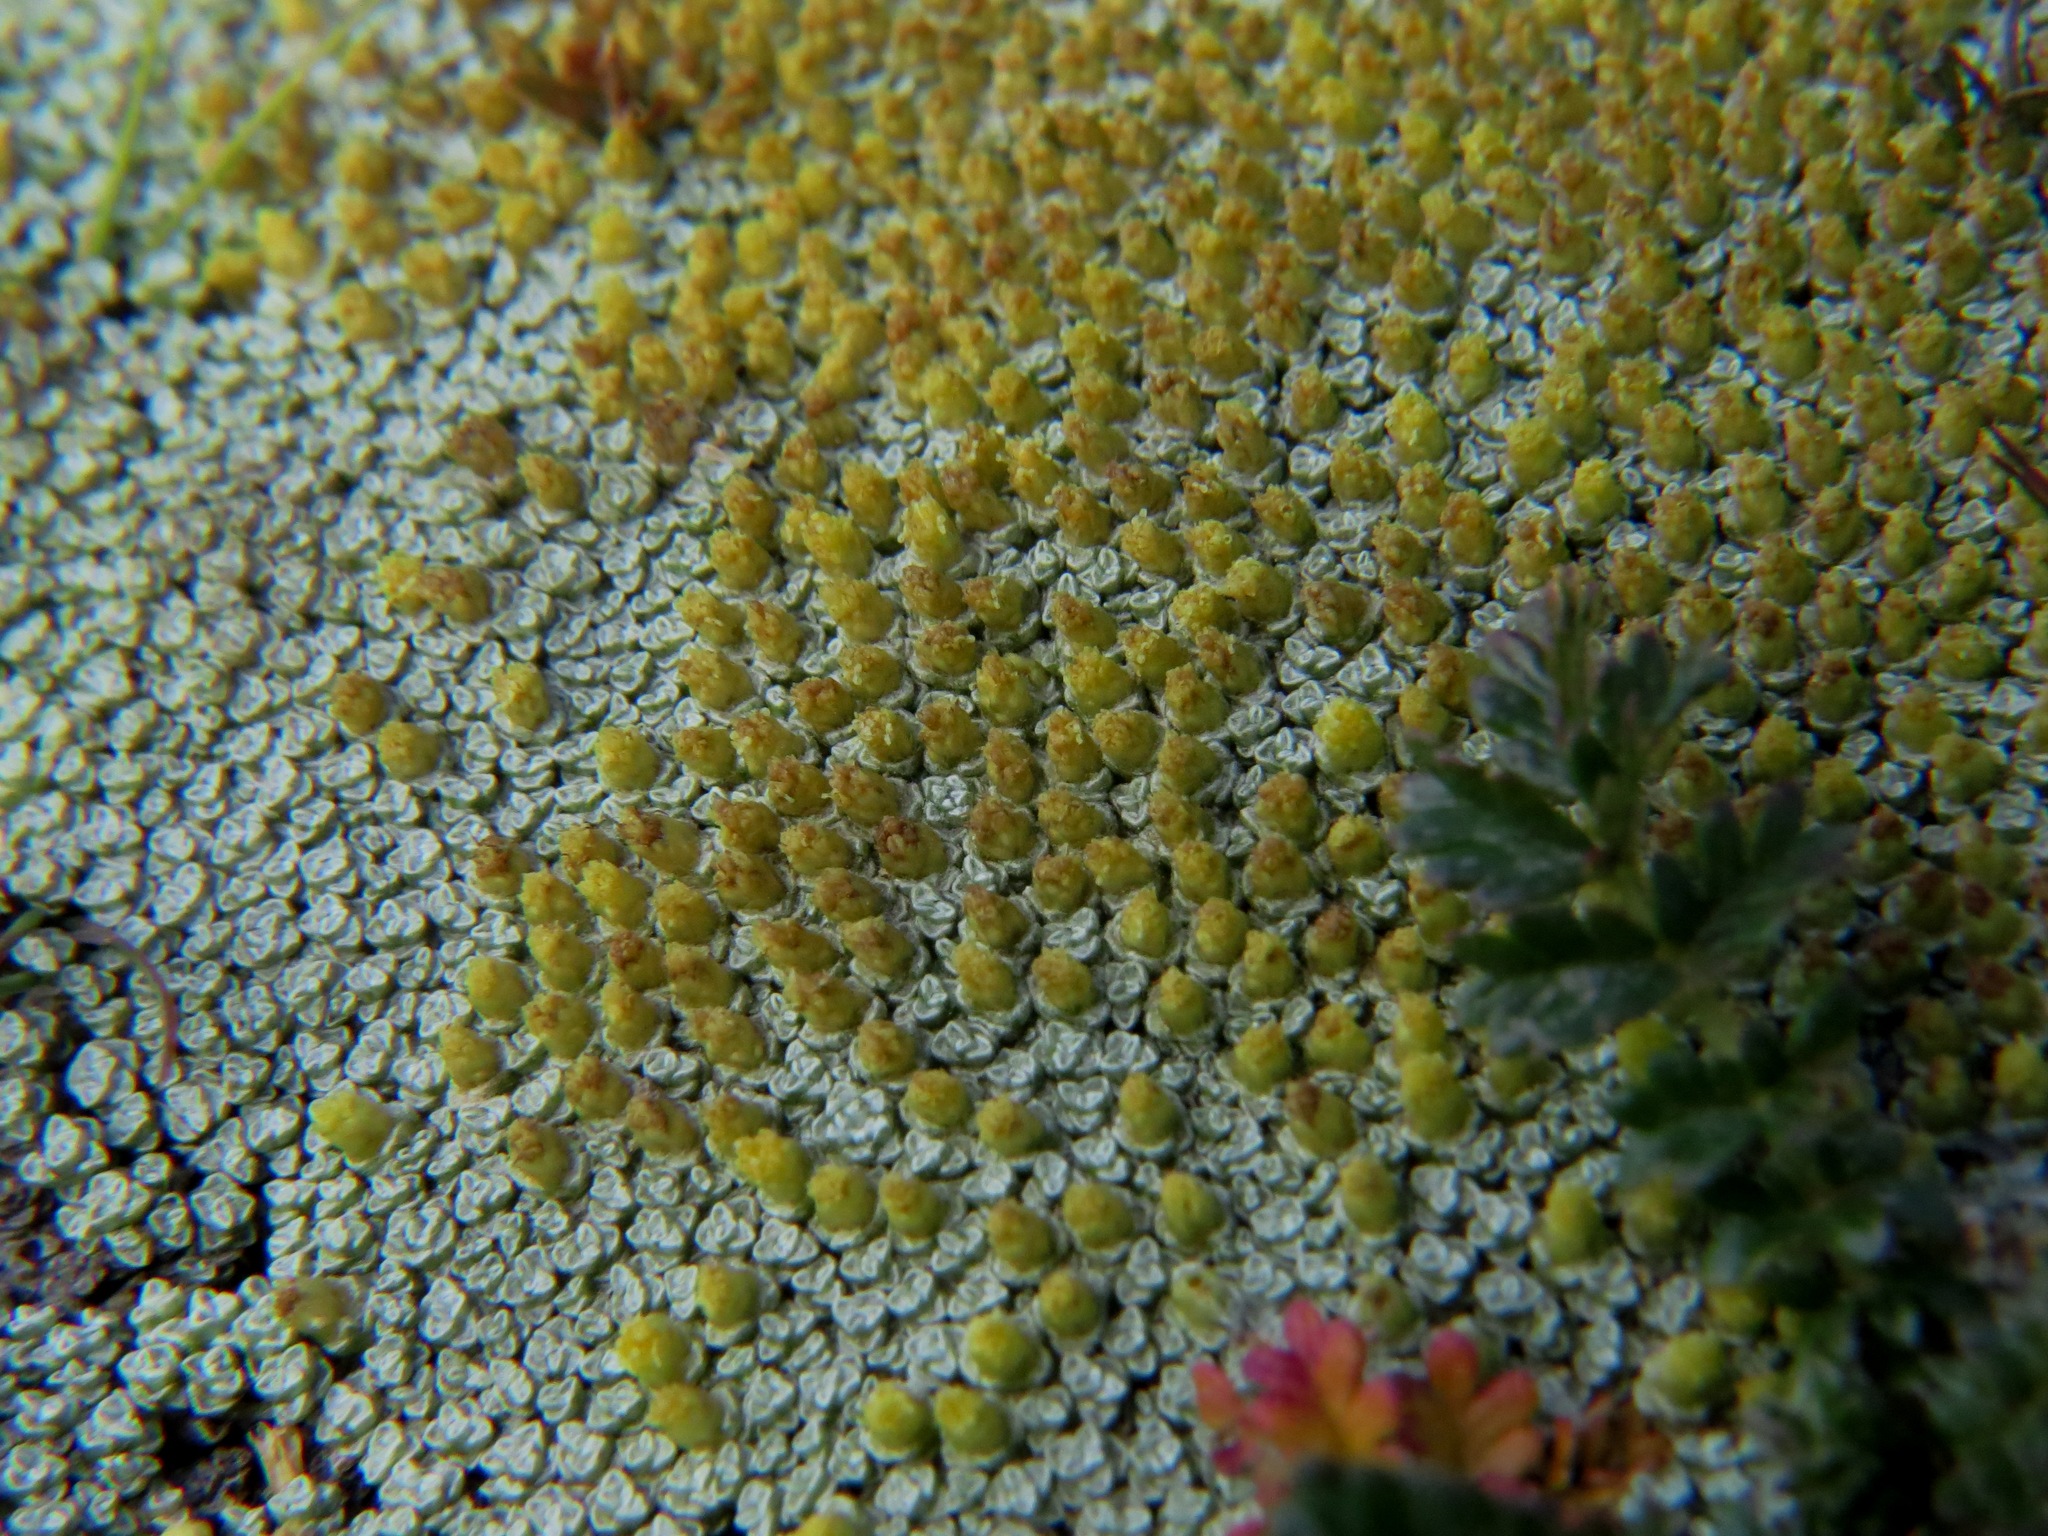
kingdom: Plantae
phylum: Tracheophyta
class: Magnoliopsida
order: Asterales
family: Asteraceae
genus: Raoulia
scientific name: Raoulia australis
